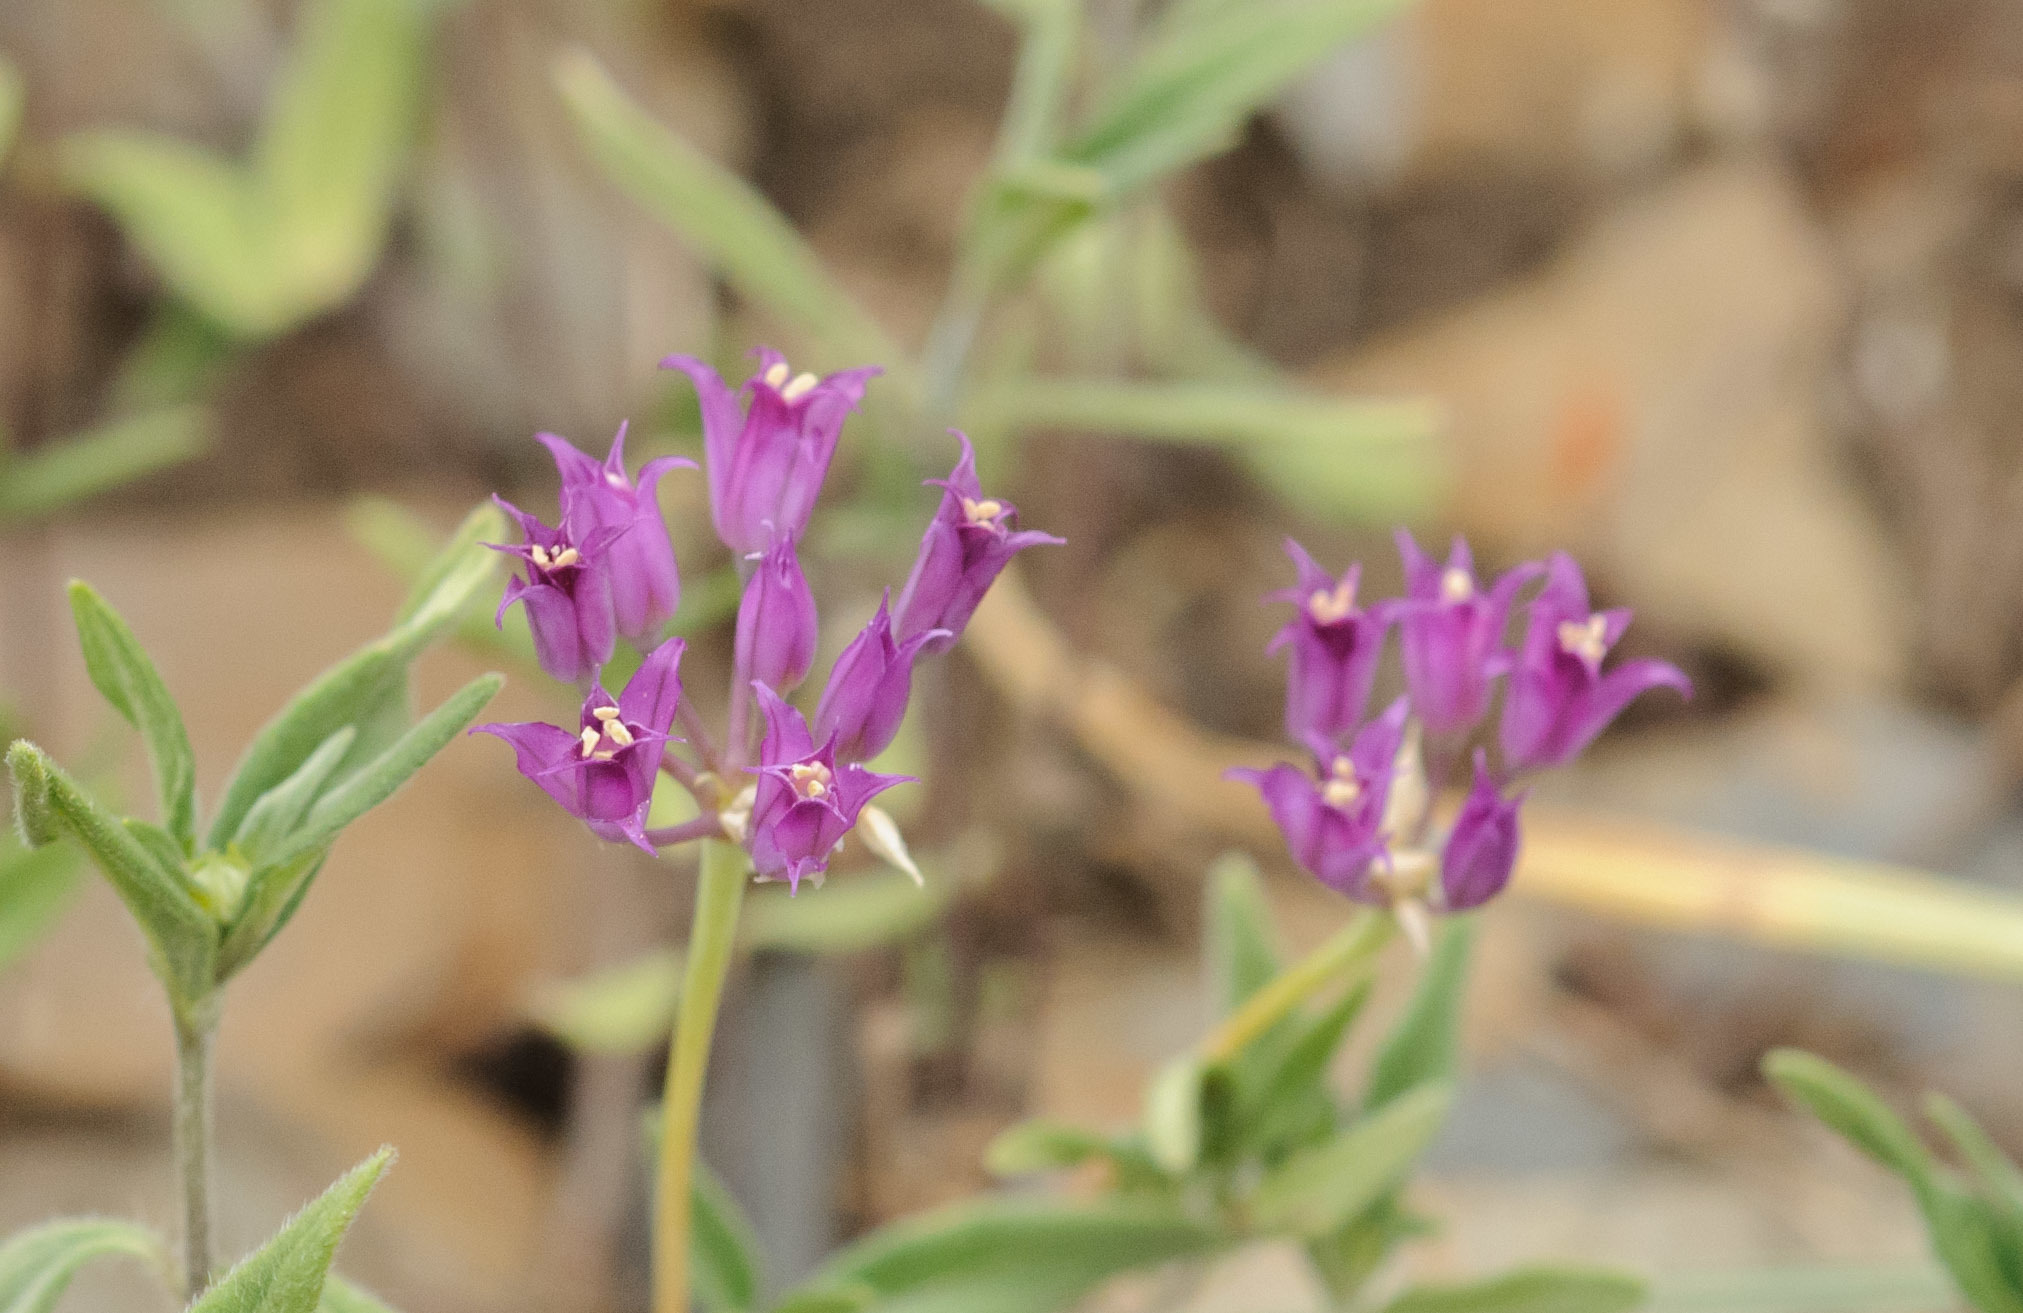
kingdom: Plantae
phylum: Tracheophyta
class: Liliopsida
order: Asparagales
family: Amaryllidaceae
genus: Allium
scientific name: Allium acuminatum
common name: Hooker's onion
